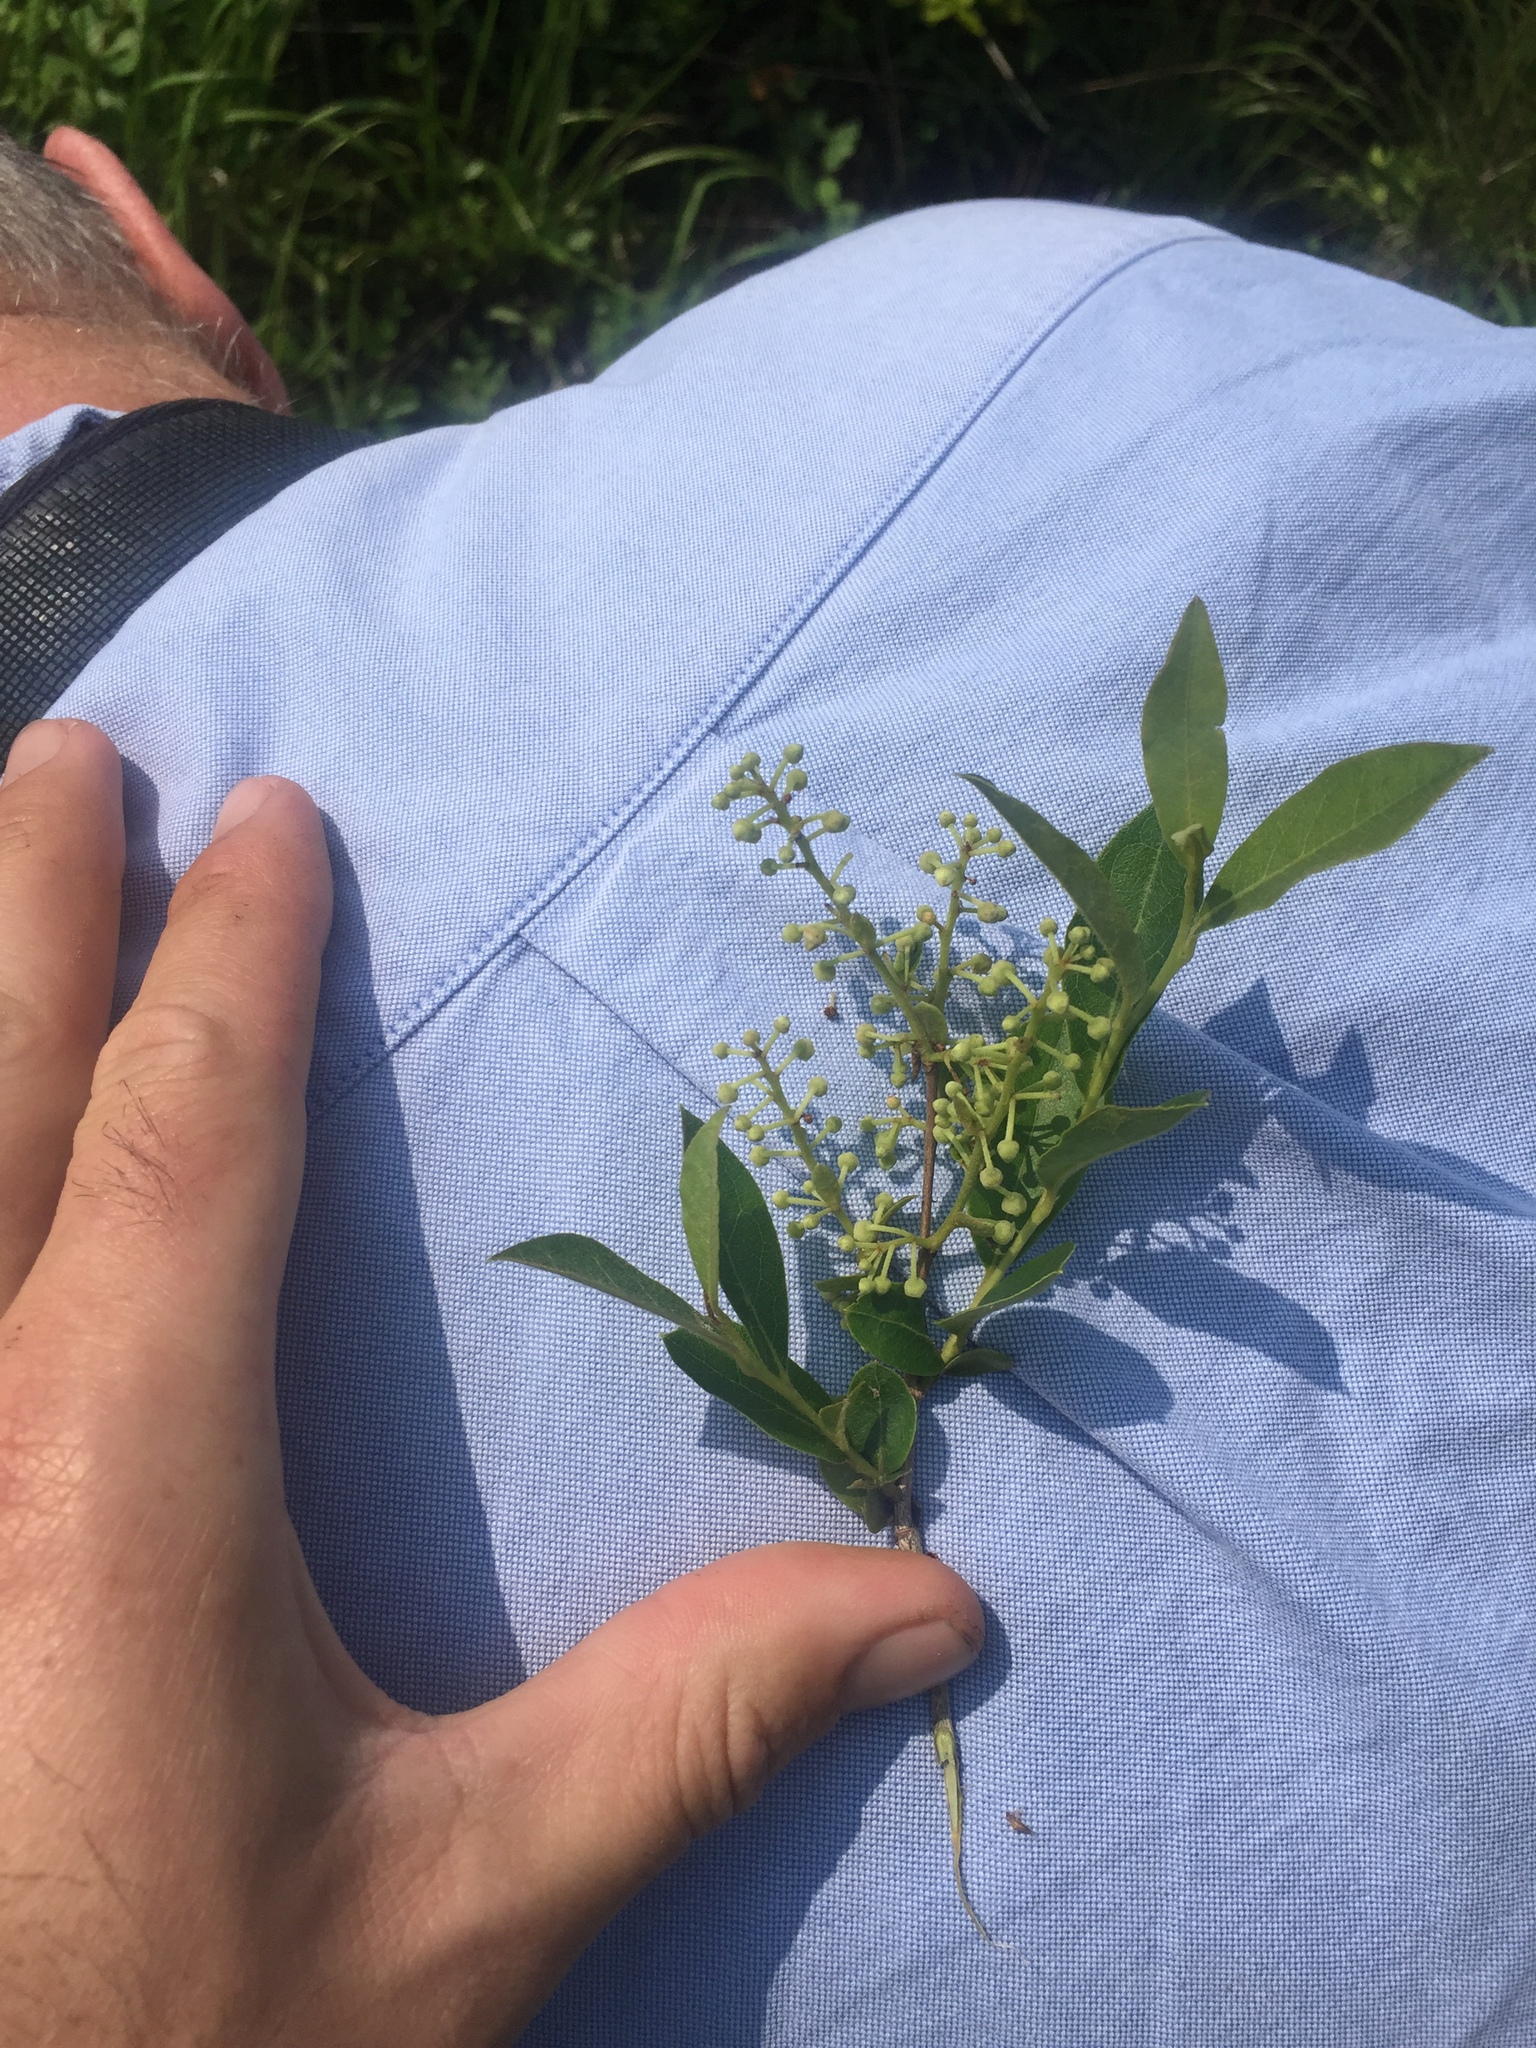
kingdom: Plantae
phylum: Tracheophyta
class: Magnoliopsida
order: Ericales
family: Ericaceae
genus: Lyonia
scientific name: Lyonia ligustrina
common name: Maleberry
